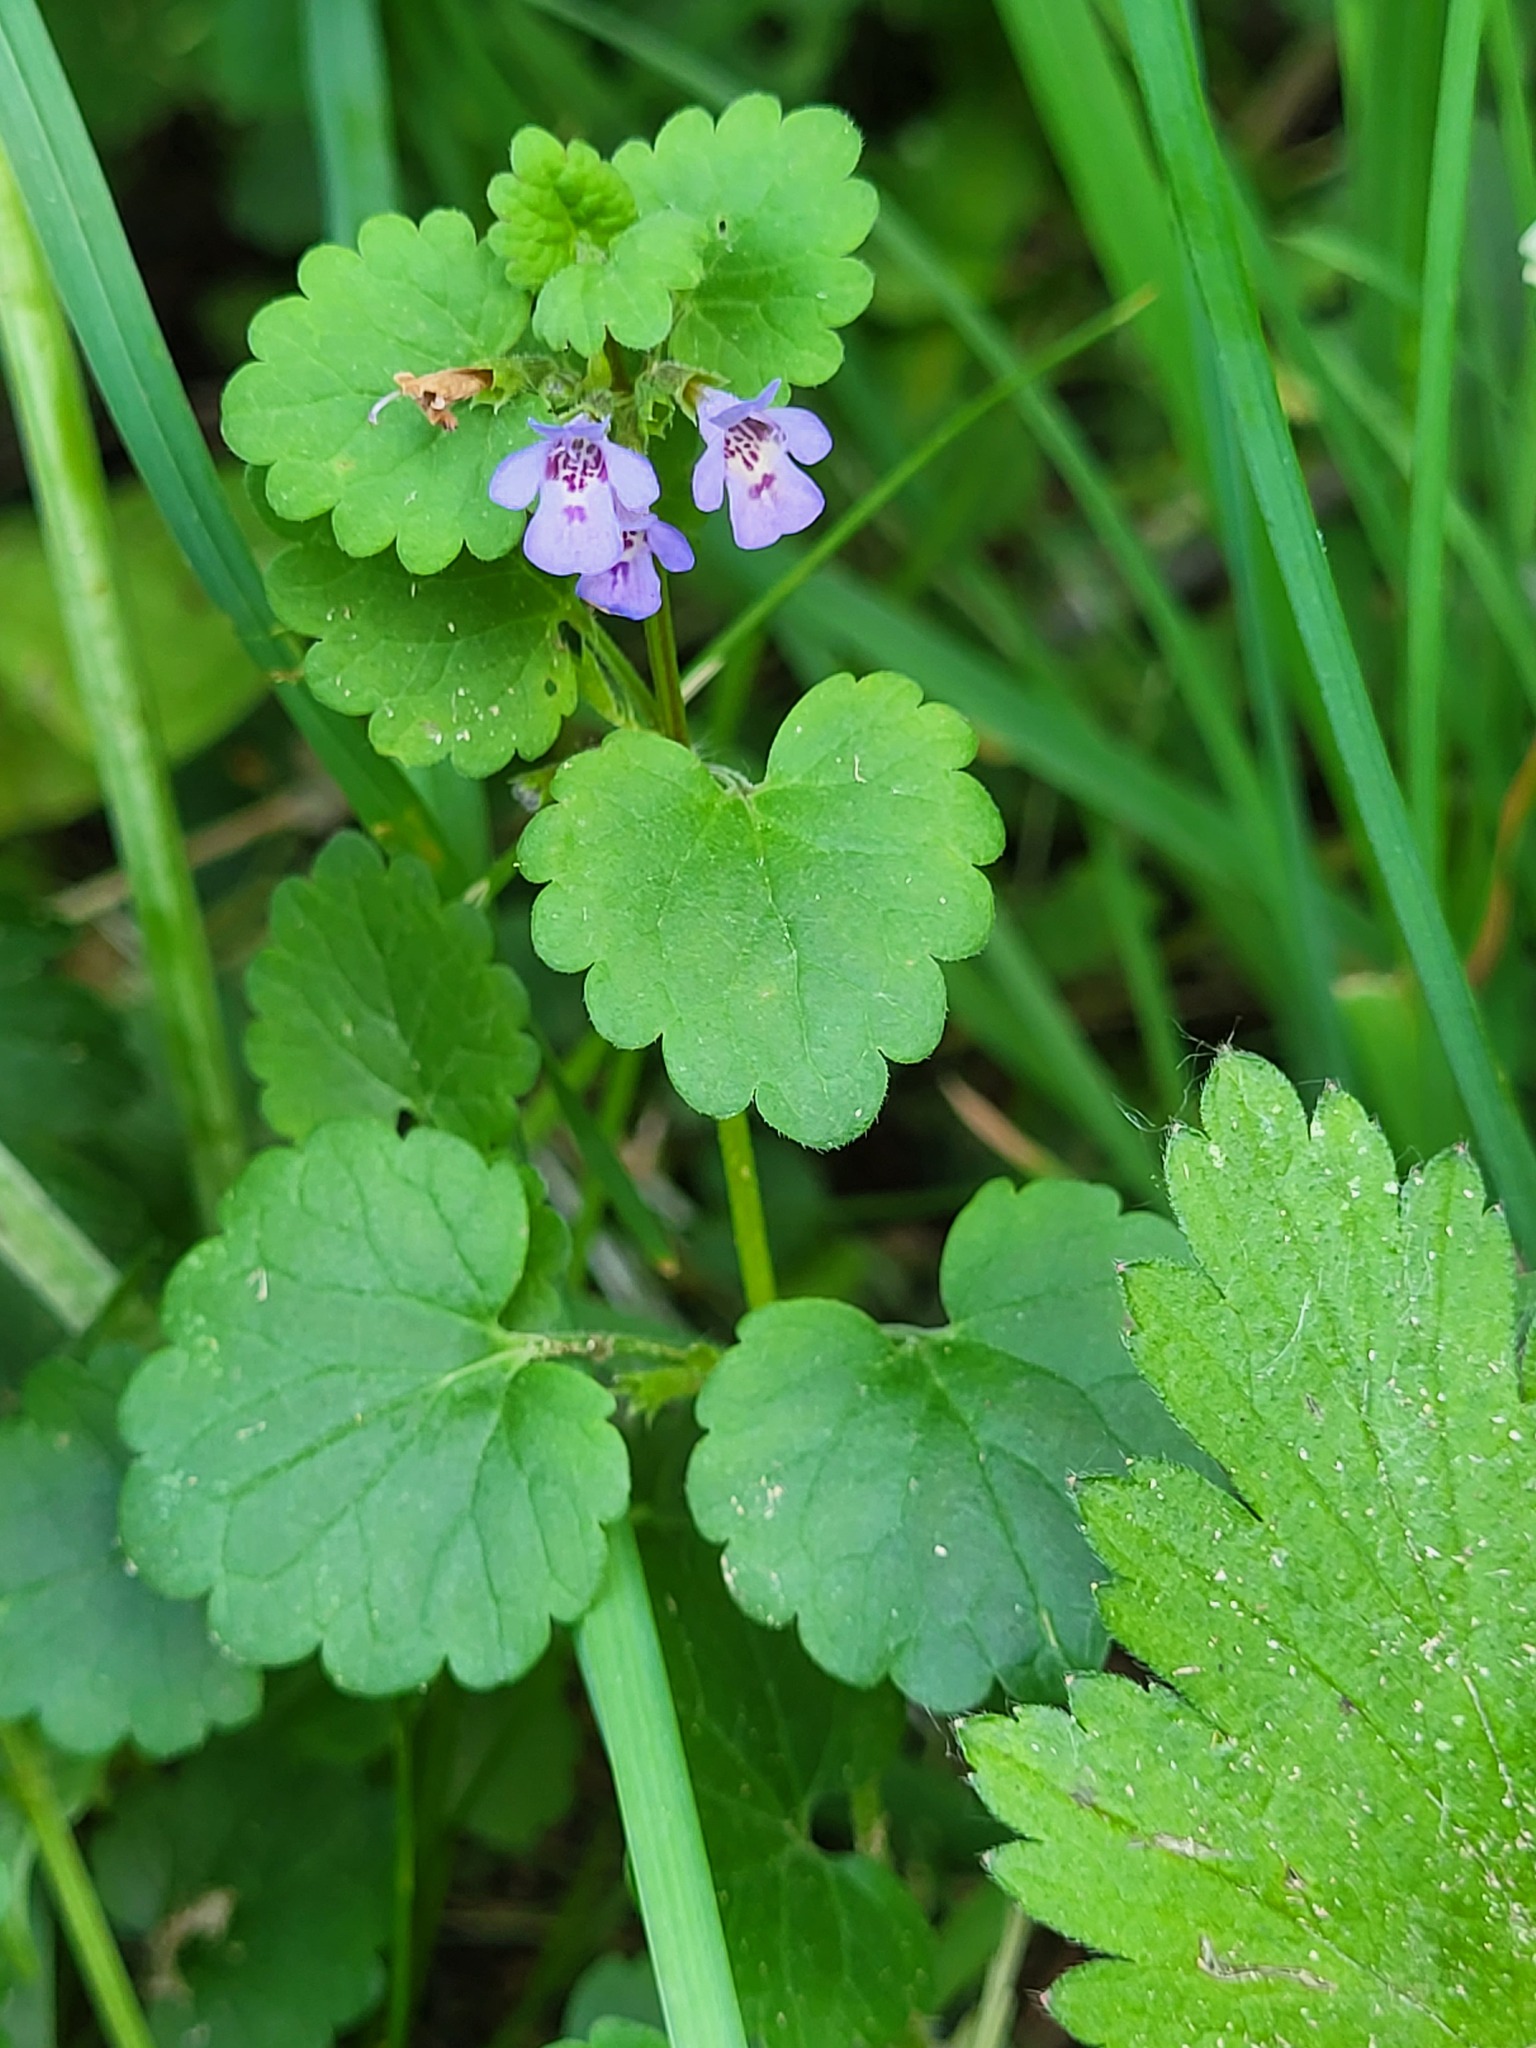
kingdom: Plantae
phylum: Tracheophyta
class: Magnoliopsida
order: Lamiales
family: Lamiaceae
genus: Glechoma
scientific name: Glechoma hederacea
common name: Ground ivy
